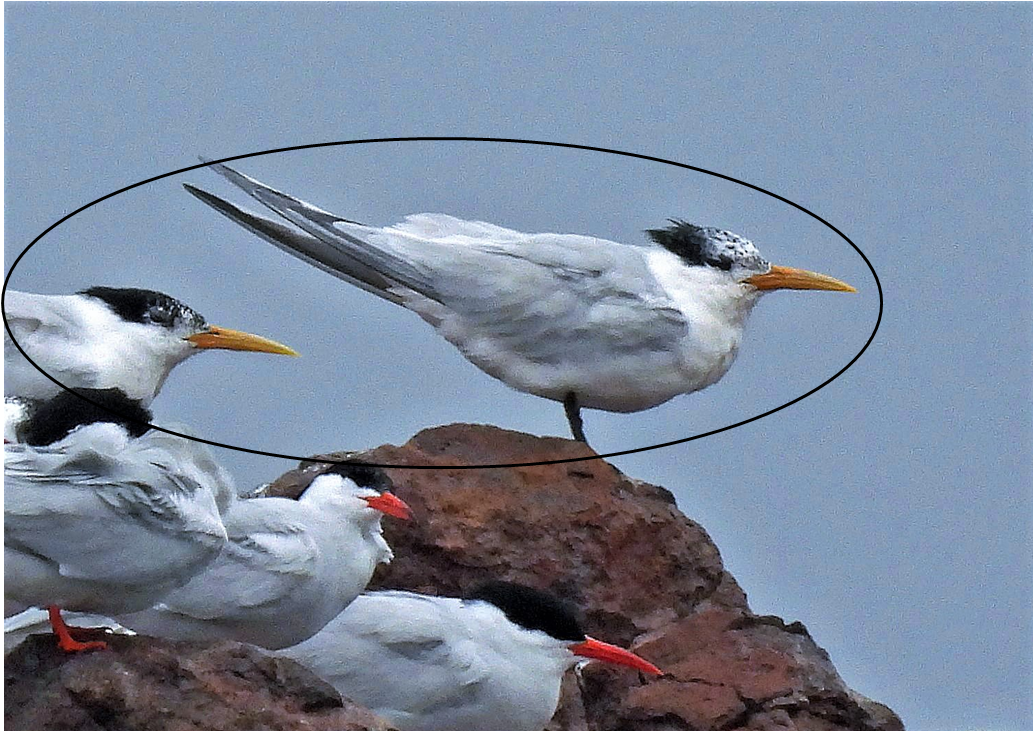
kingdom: Animalia
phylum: Chordata
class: Aves
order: Charadriiformes
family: Laridae
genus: Thalasseus
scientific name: Thalasseus acuflavidus
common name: Cabot's tern
